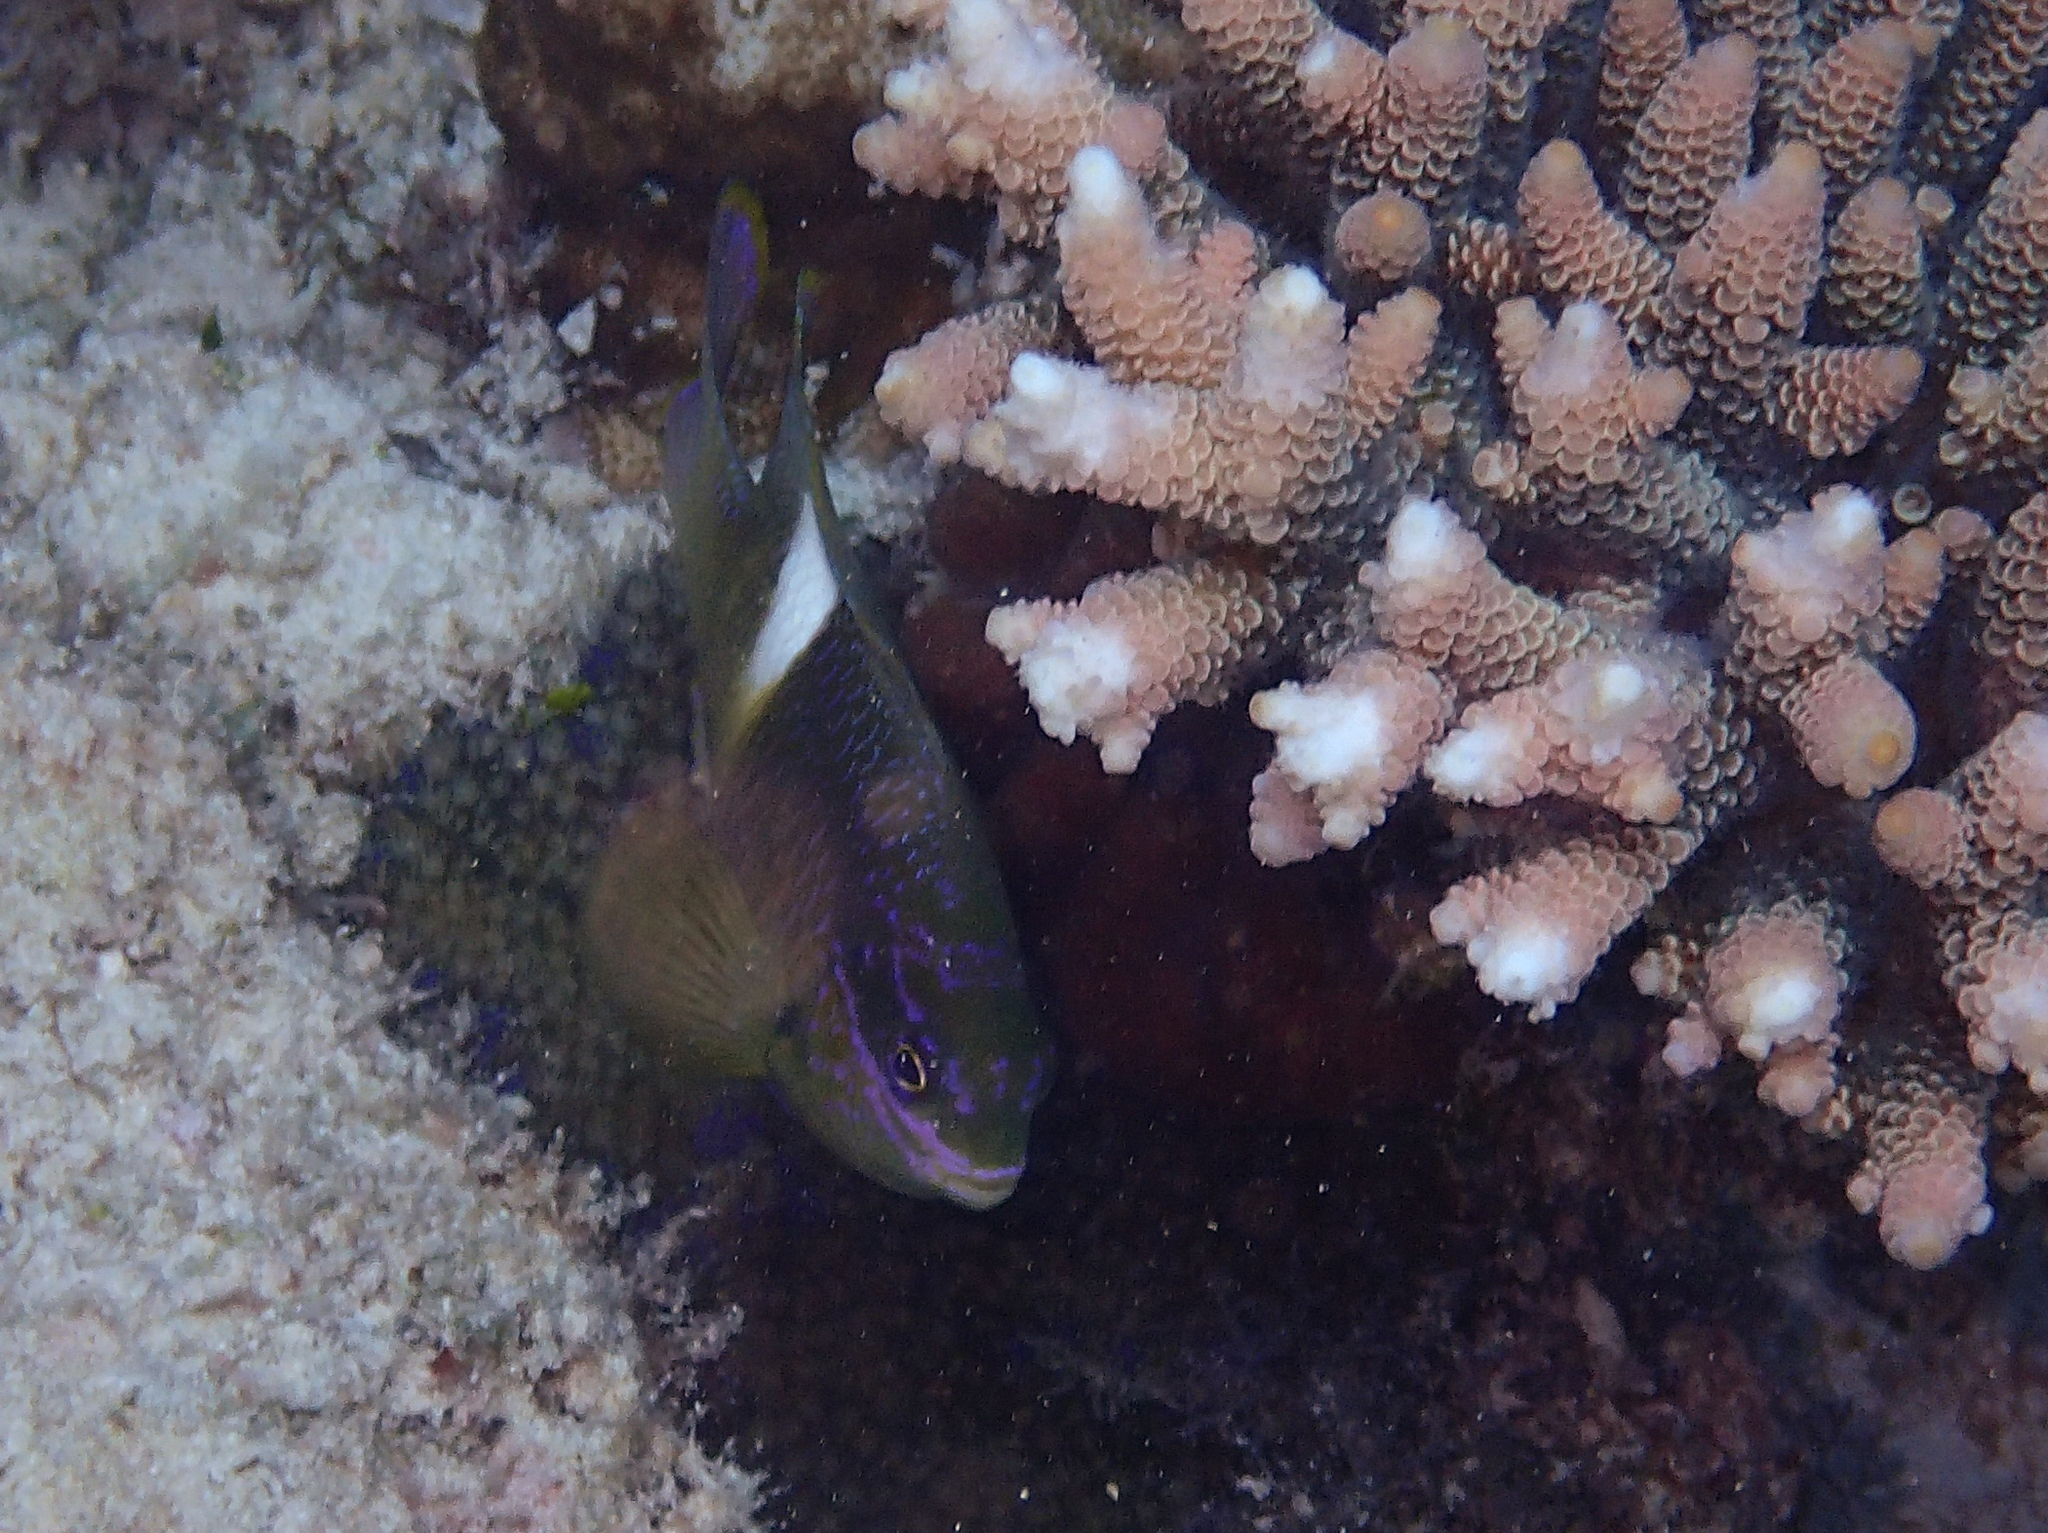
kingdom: Animalia
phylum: Chordata
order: Perciformes
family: Pomacentridae
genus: Dischistodus
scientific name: Dischistodus pseudochrysopoecilus
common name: Monarch damsel
